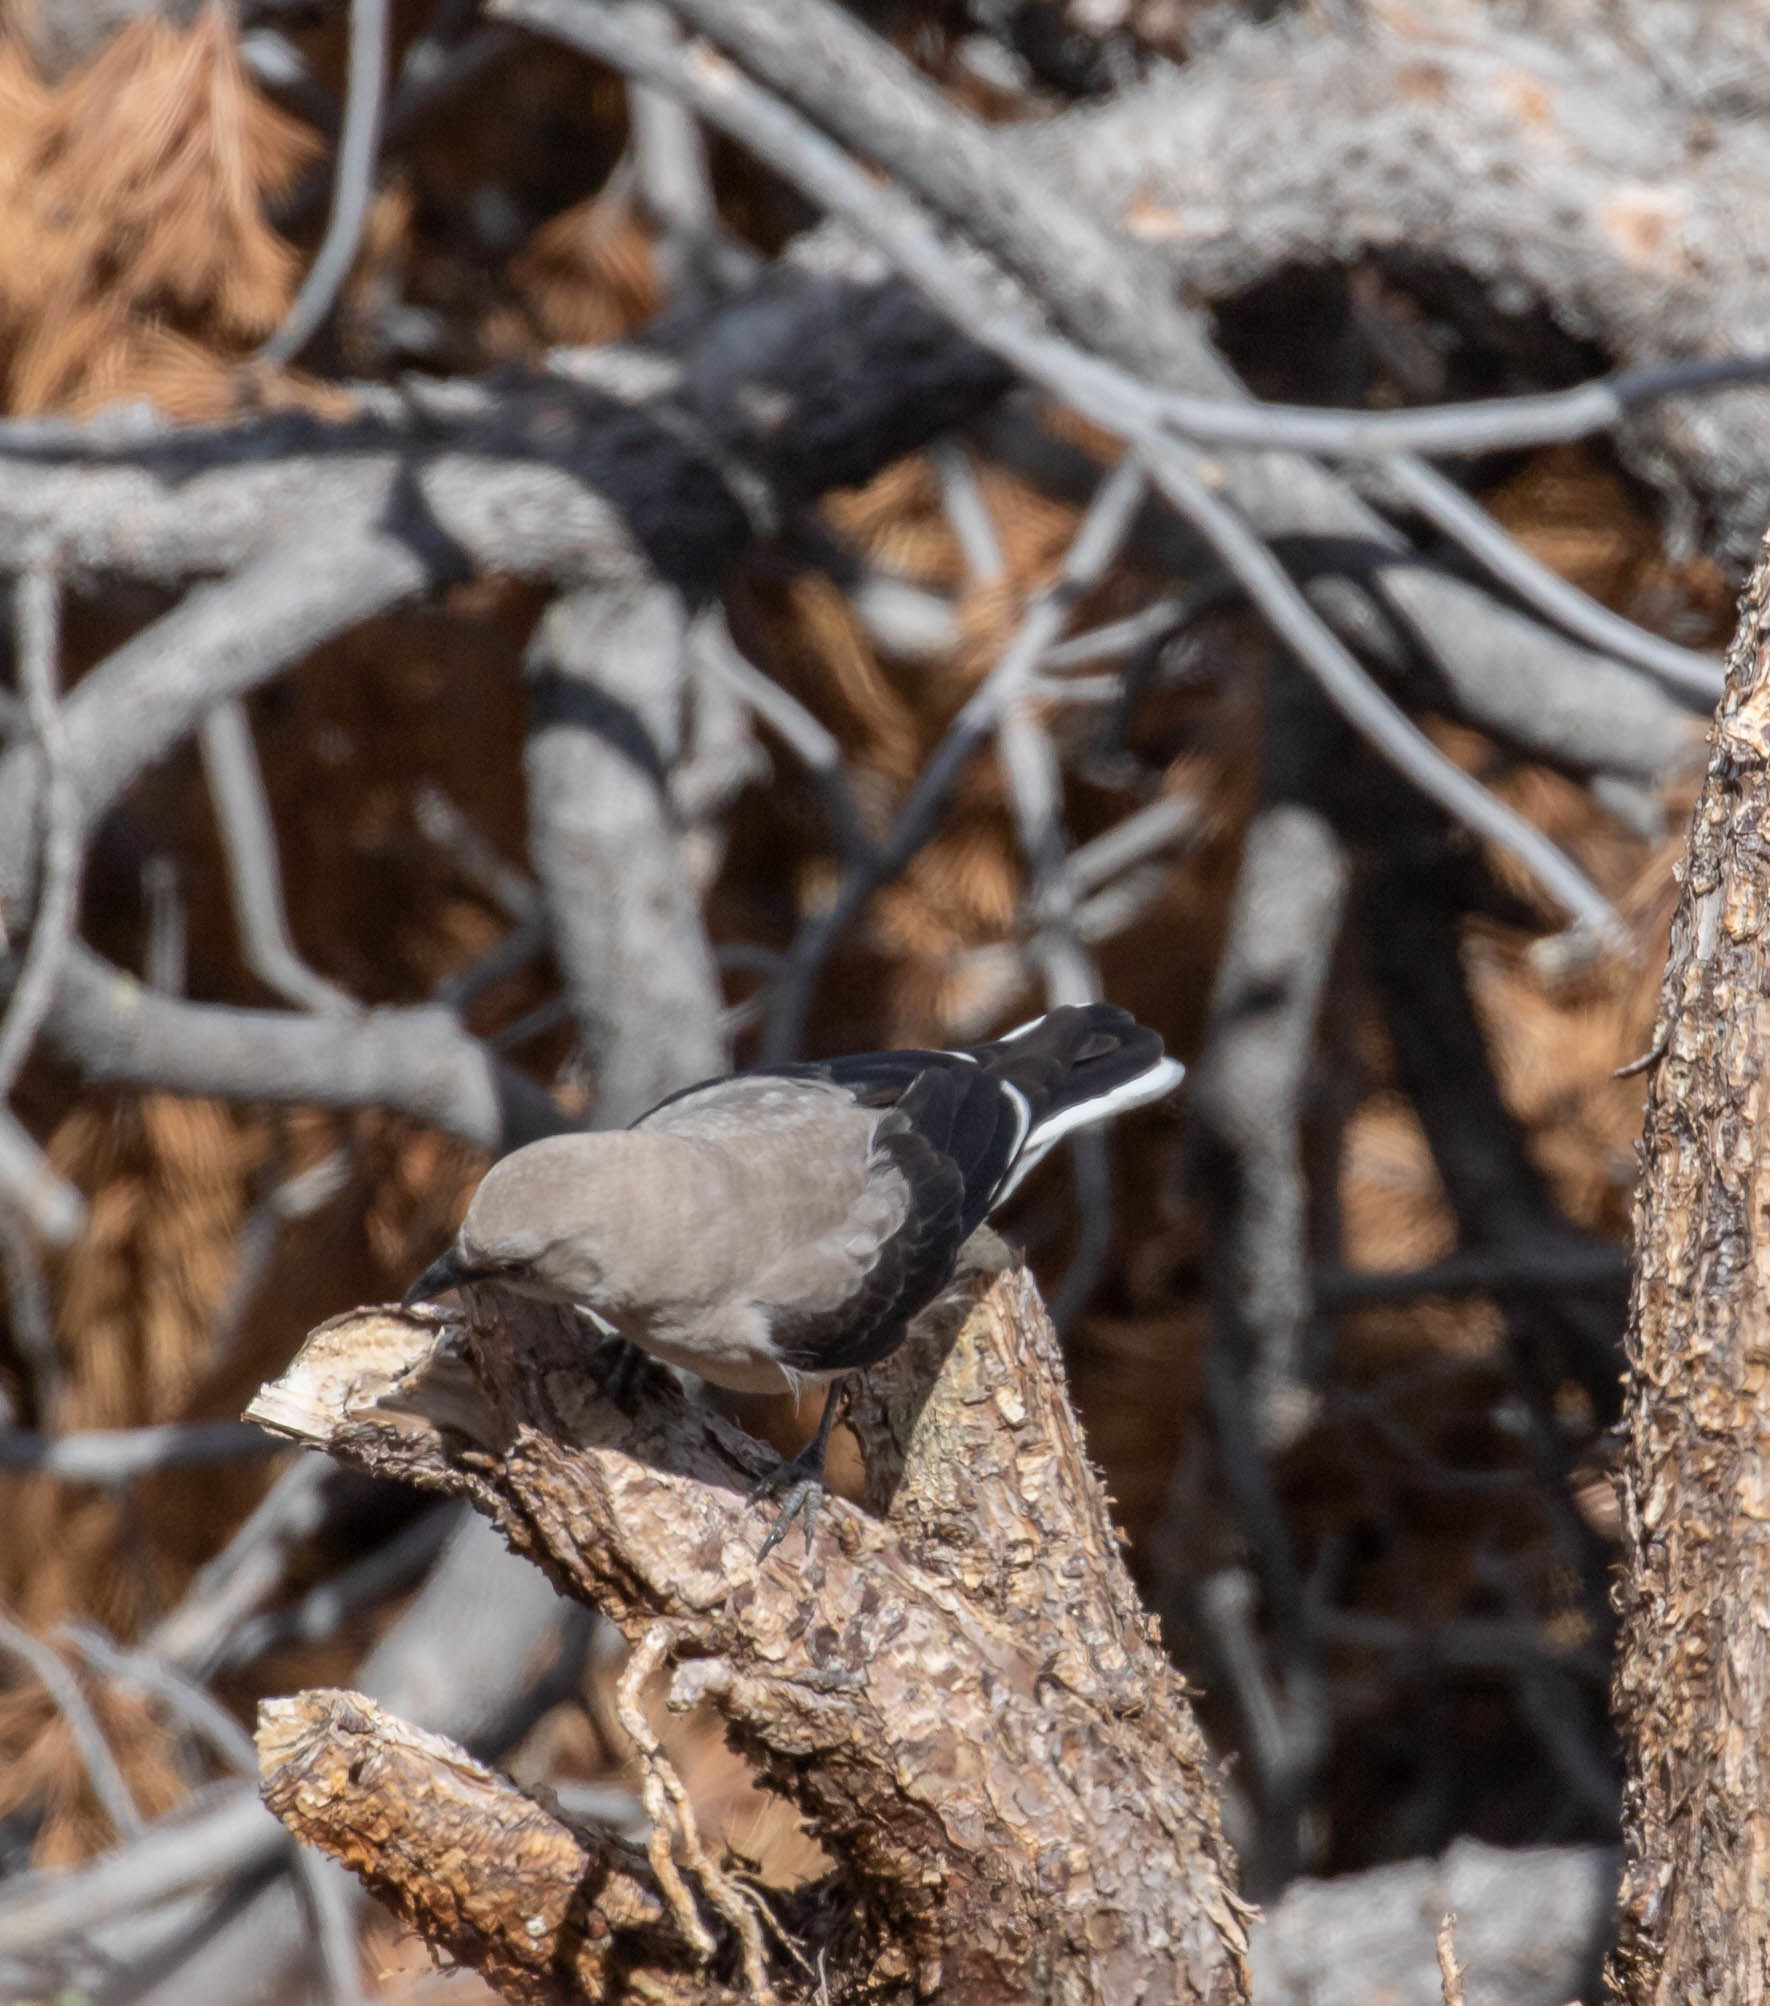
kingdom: Animalia
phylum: Chordata
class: Aves
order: Passeriformes
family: Corvidae
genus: Nucifraga
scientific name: Nucifraga columbiana
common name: Clark's nutcracker
